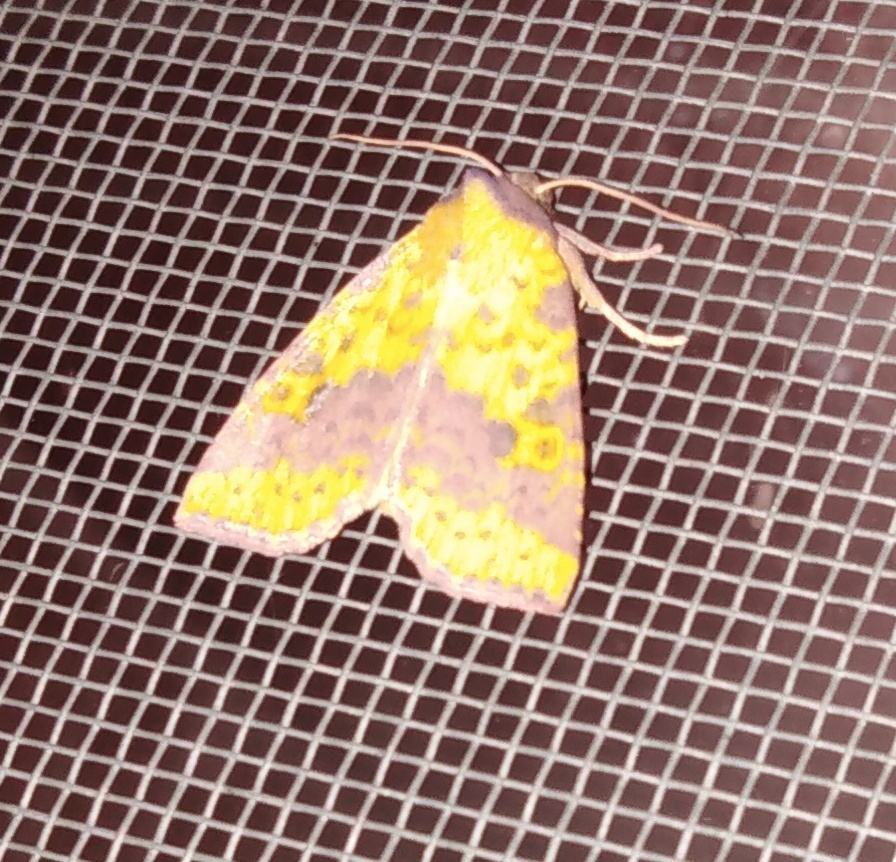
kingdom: Animalia
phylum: Arthropoda
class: Insecta
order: Lepidoptera
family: Noctuidae
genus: Xanthia
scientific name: Xanthia togata
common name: Pink-barred sallow
